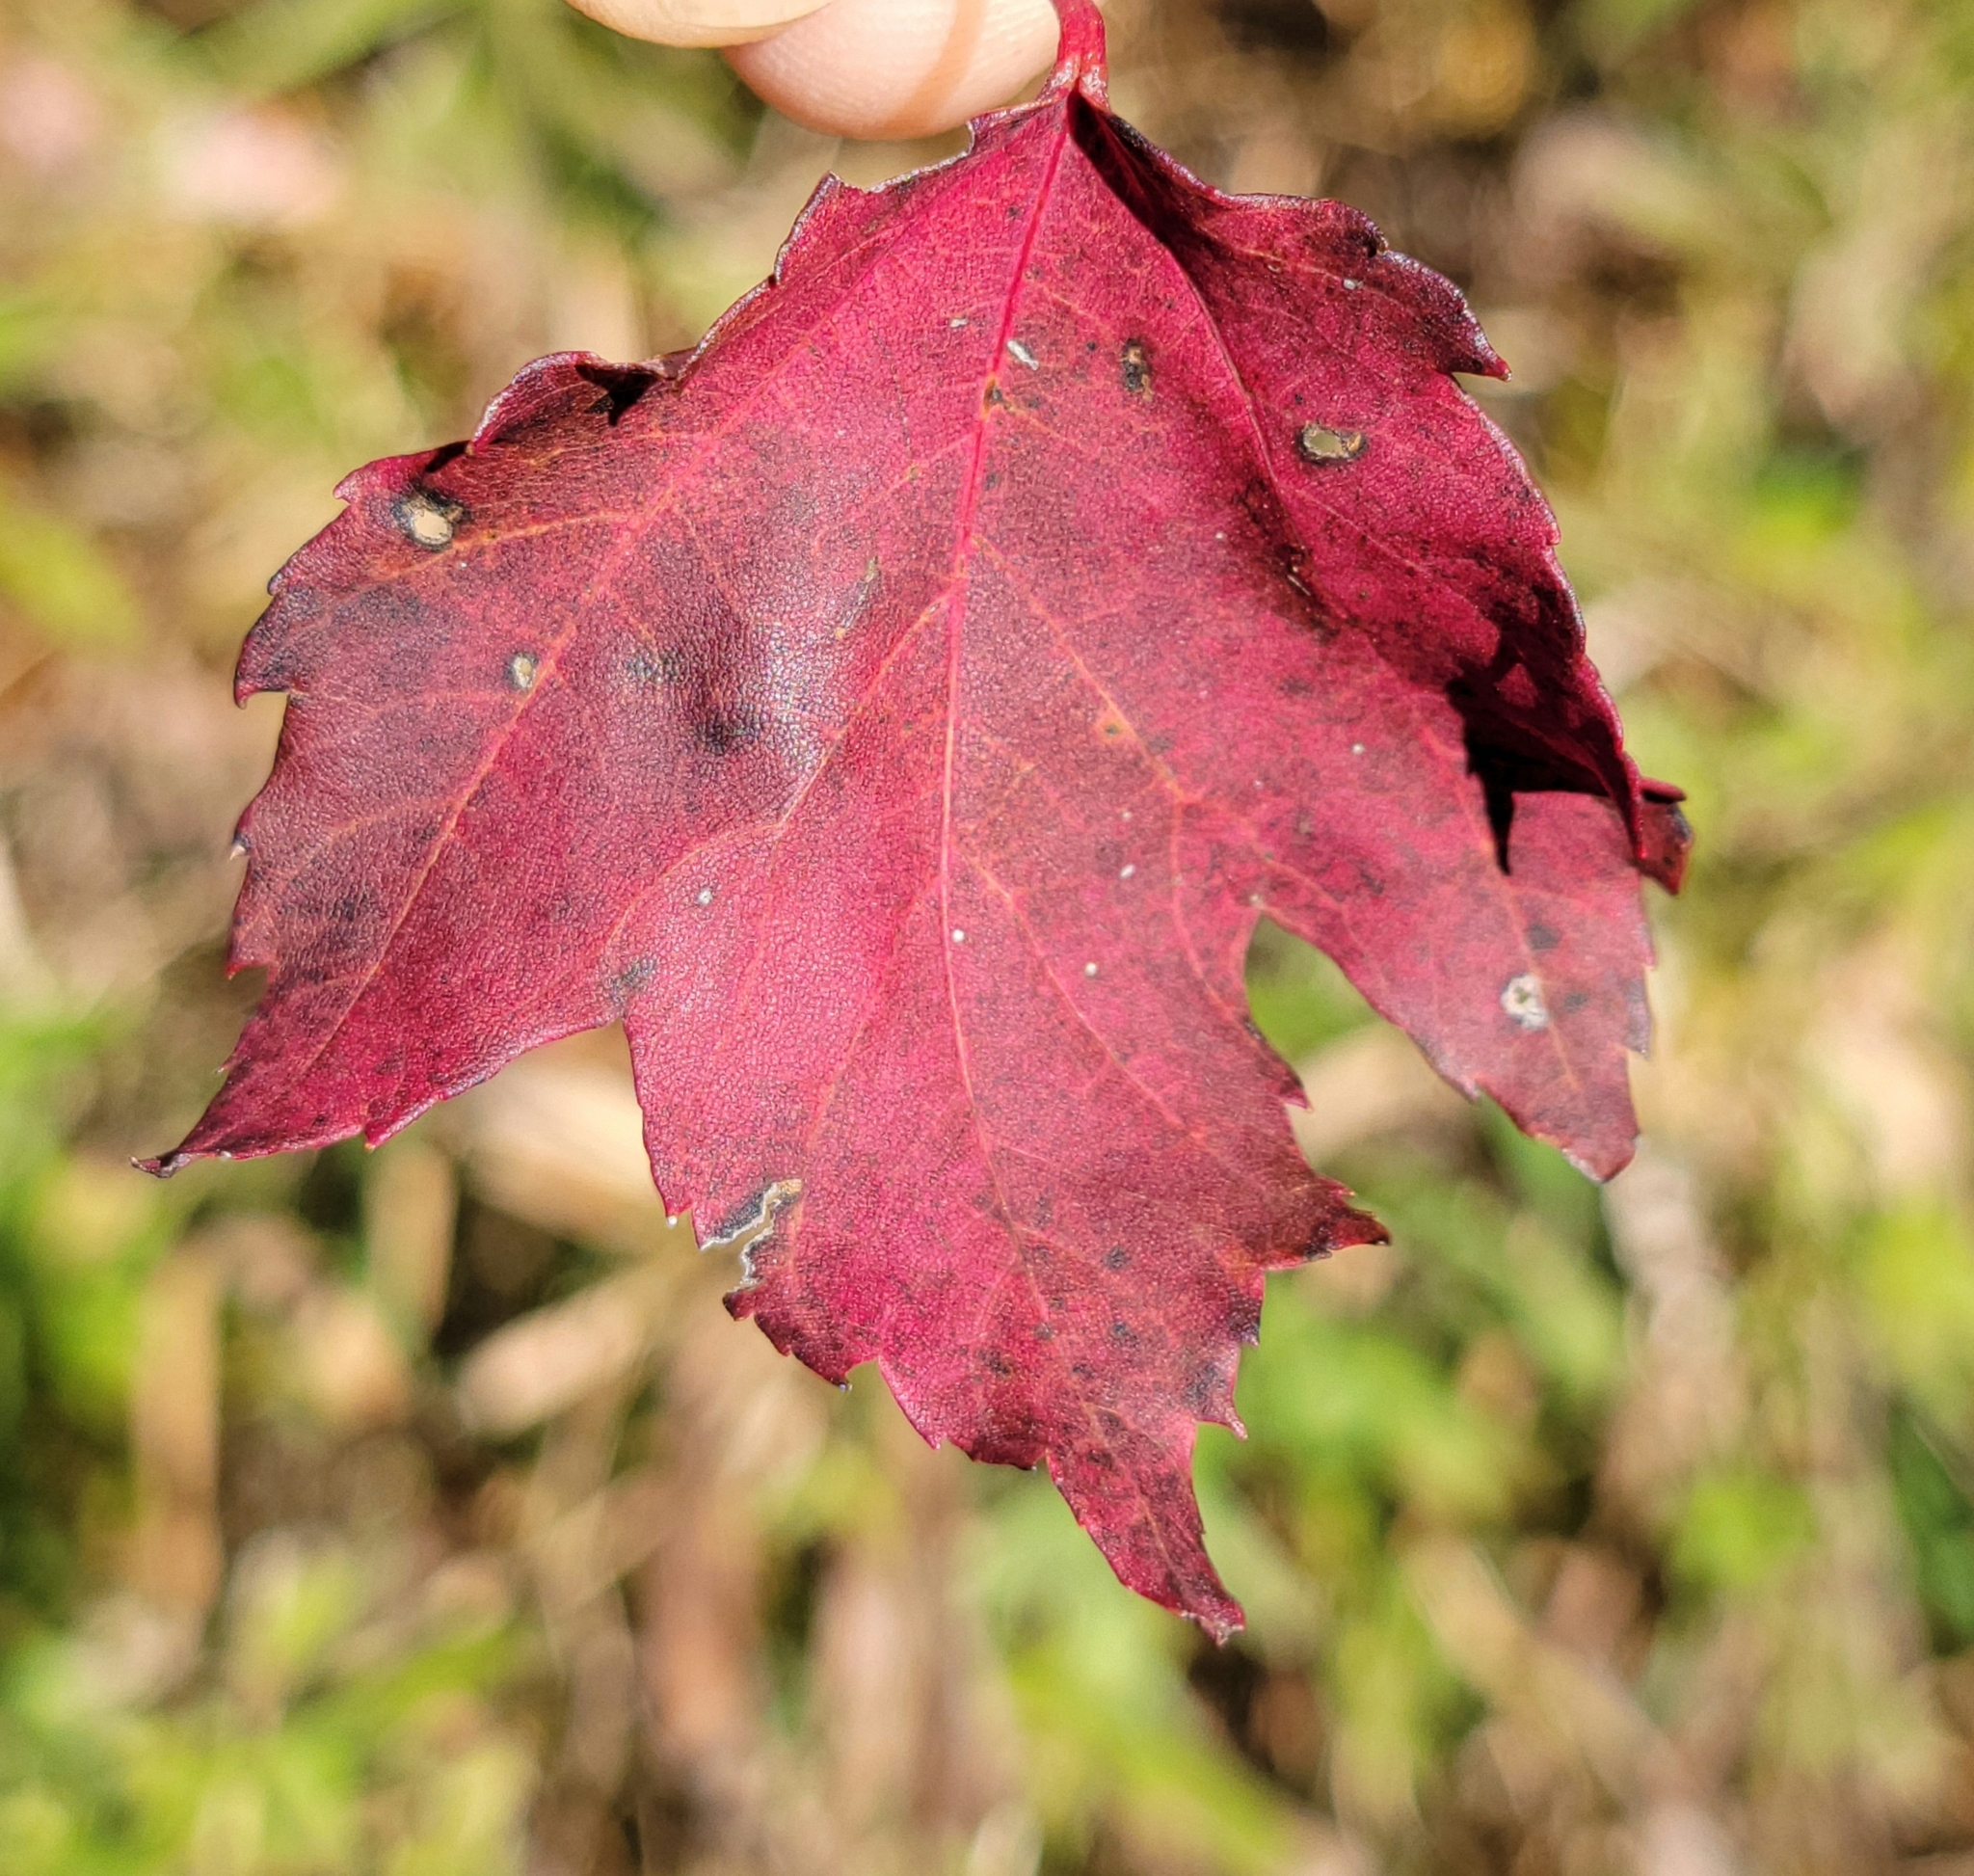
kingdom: Plantae
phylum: Tracheophyta
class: Magnoliopsida
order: Sapindales
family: Sapindaceae
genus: Acer
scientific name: Acer rubrum
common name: Red maple
